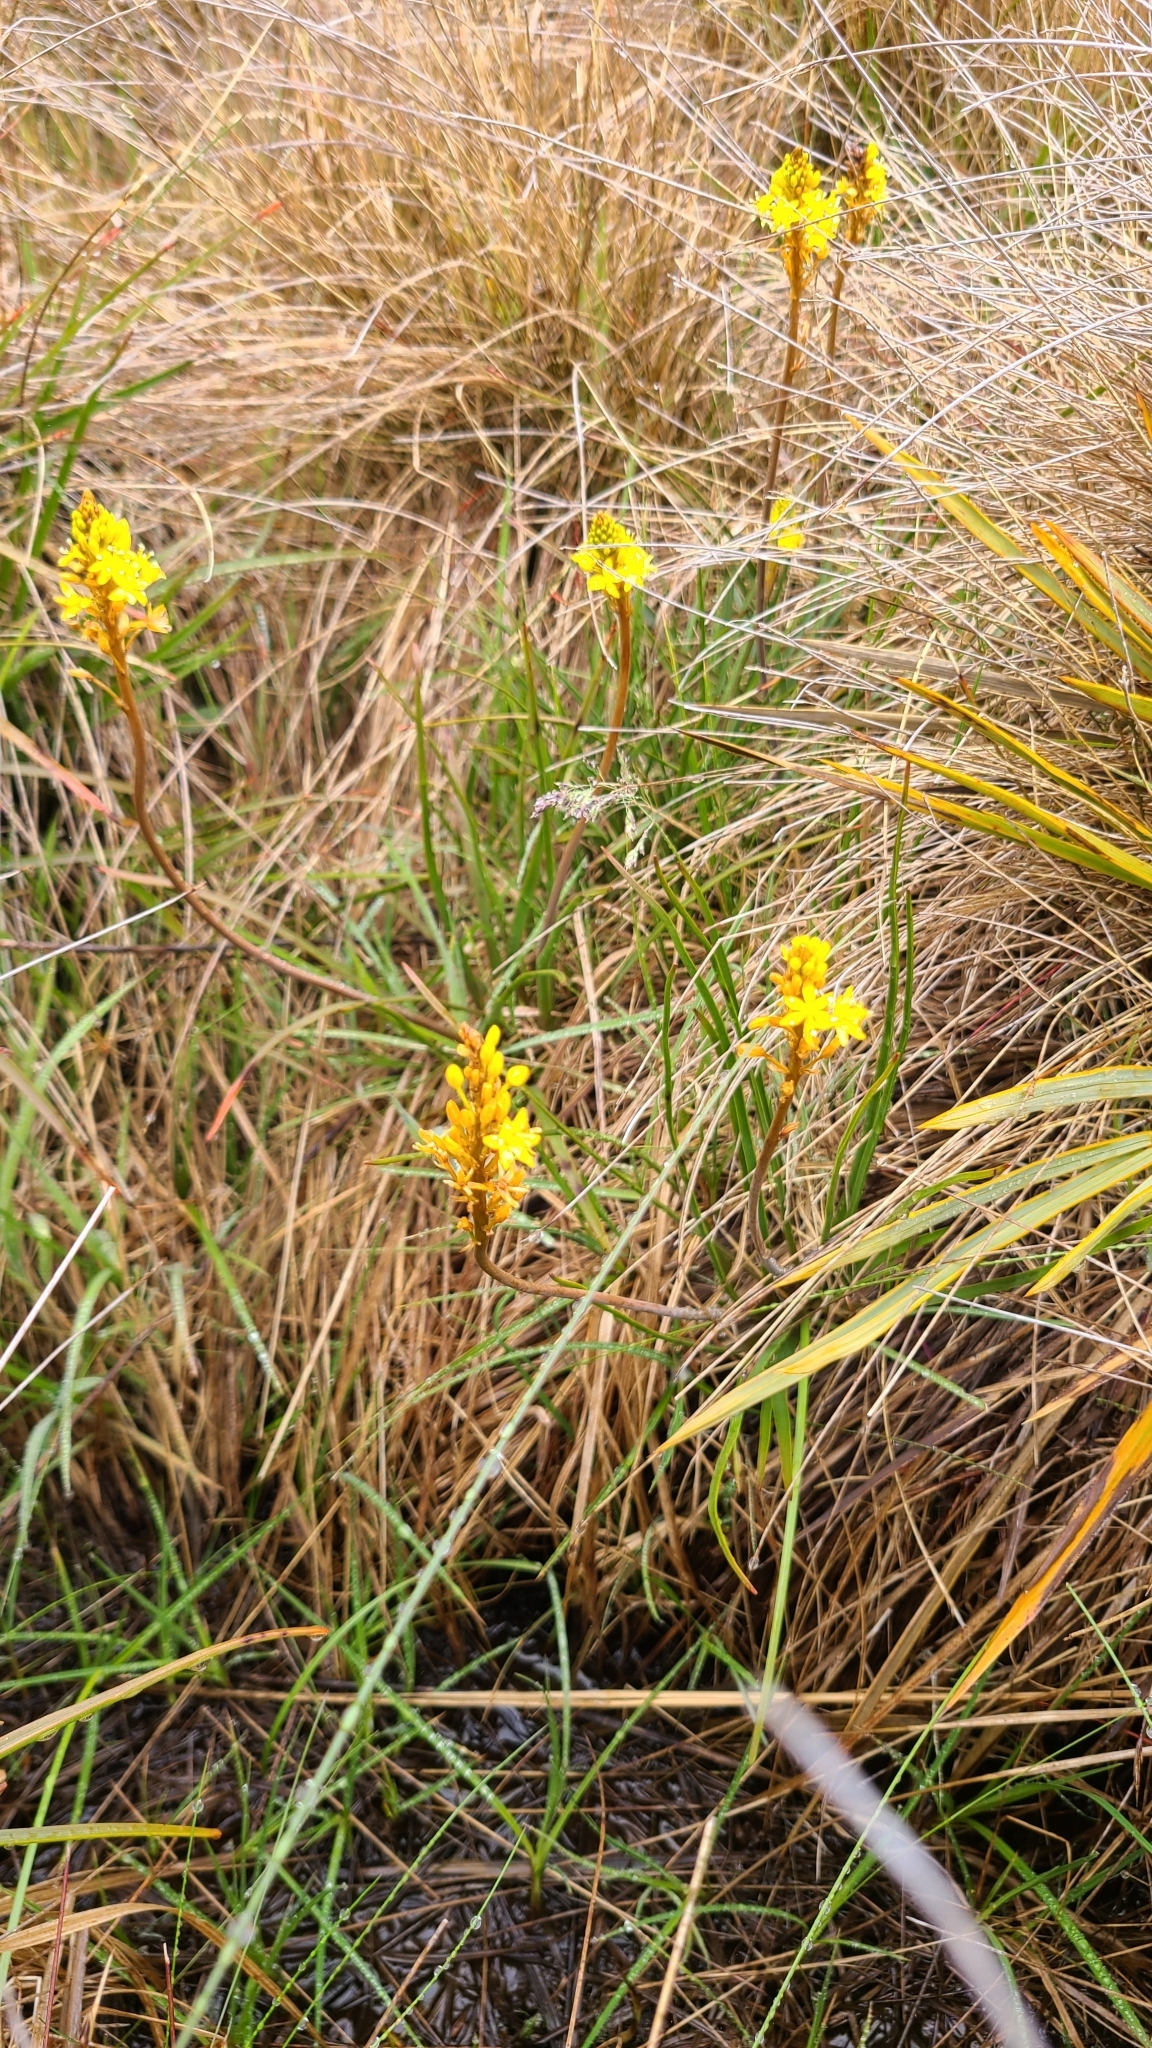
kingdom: Plantae
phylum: Tracheophyta
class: Liliopsida
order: Asparagales
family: Asphodelaceae
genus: Bulbinella
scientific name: Bulbinella angustifolia
